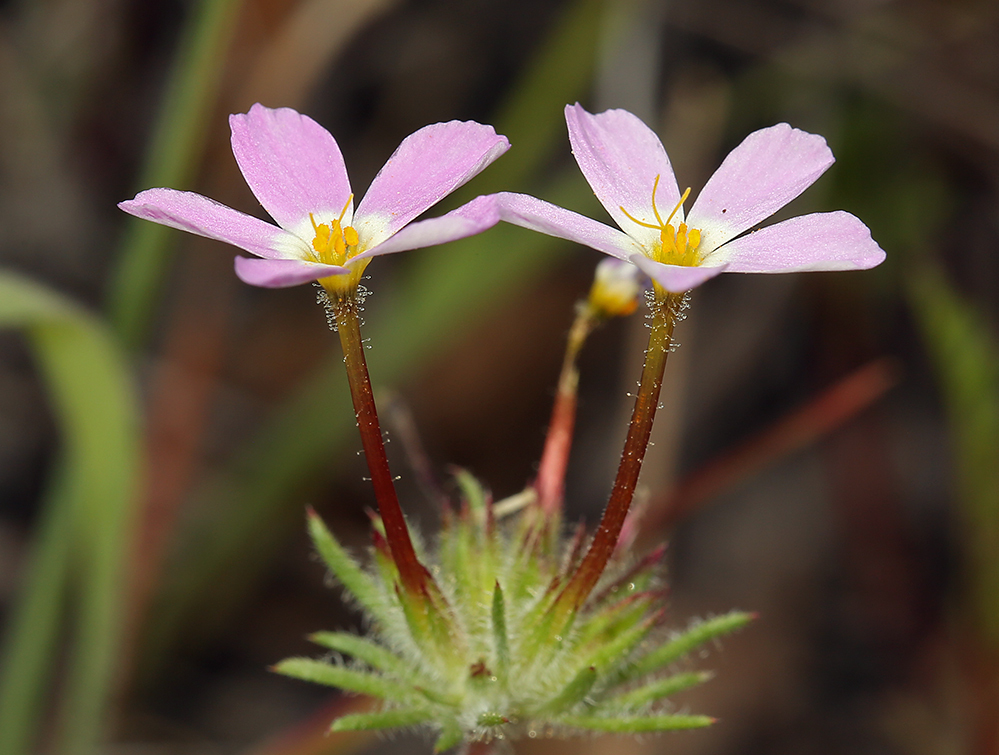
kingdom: Plantae
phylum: Tracheophyta
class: Magnoliopsida
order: Ericales
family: Polemoniaceae
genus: Leptosiphon
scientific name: Leptosiphon latisectus
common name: Coast range linanthus
